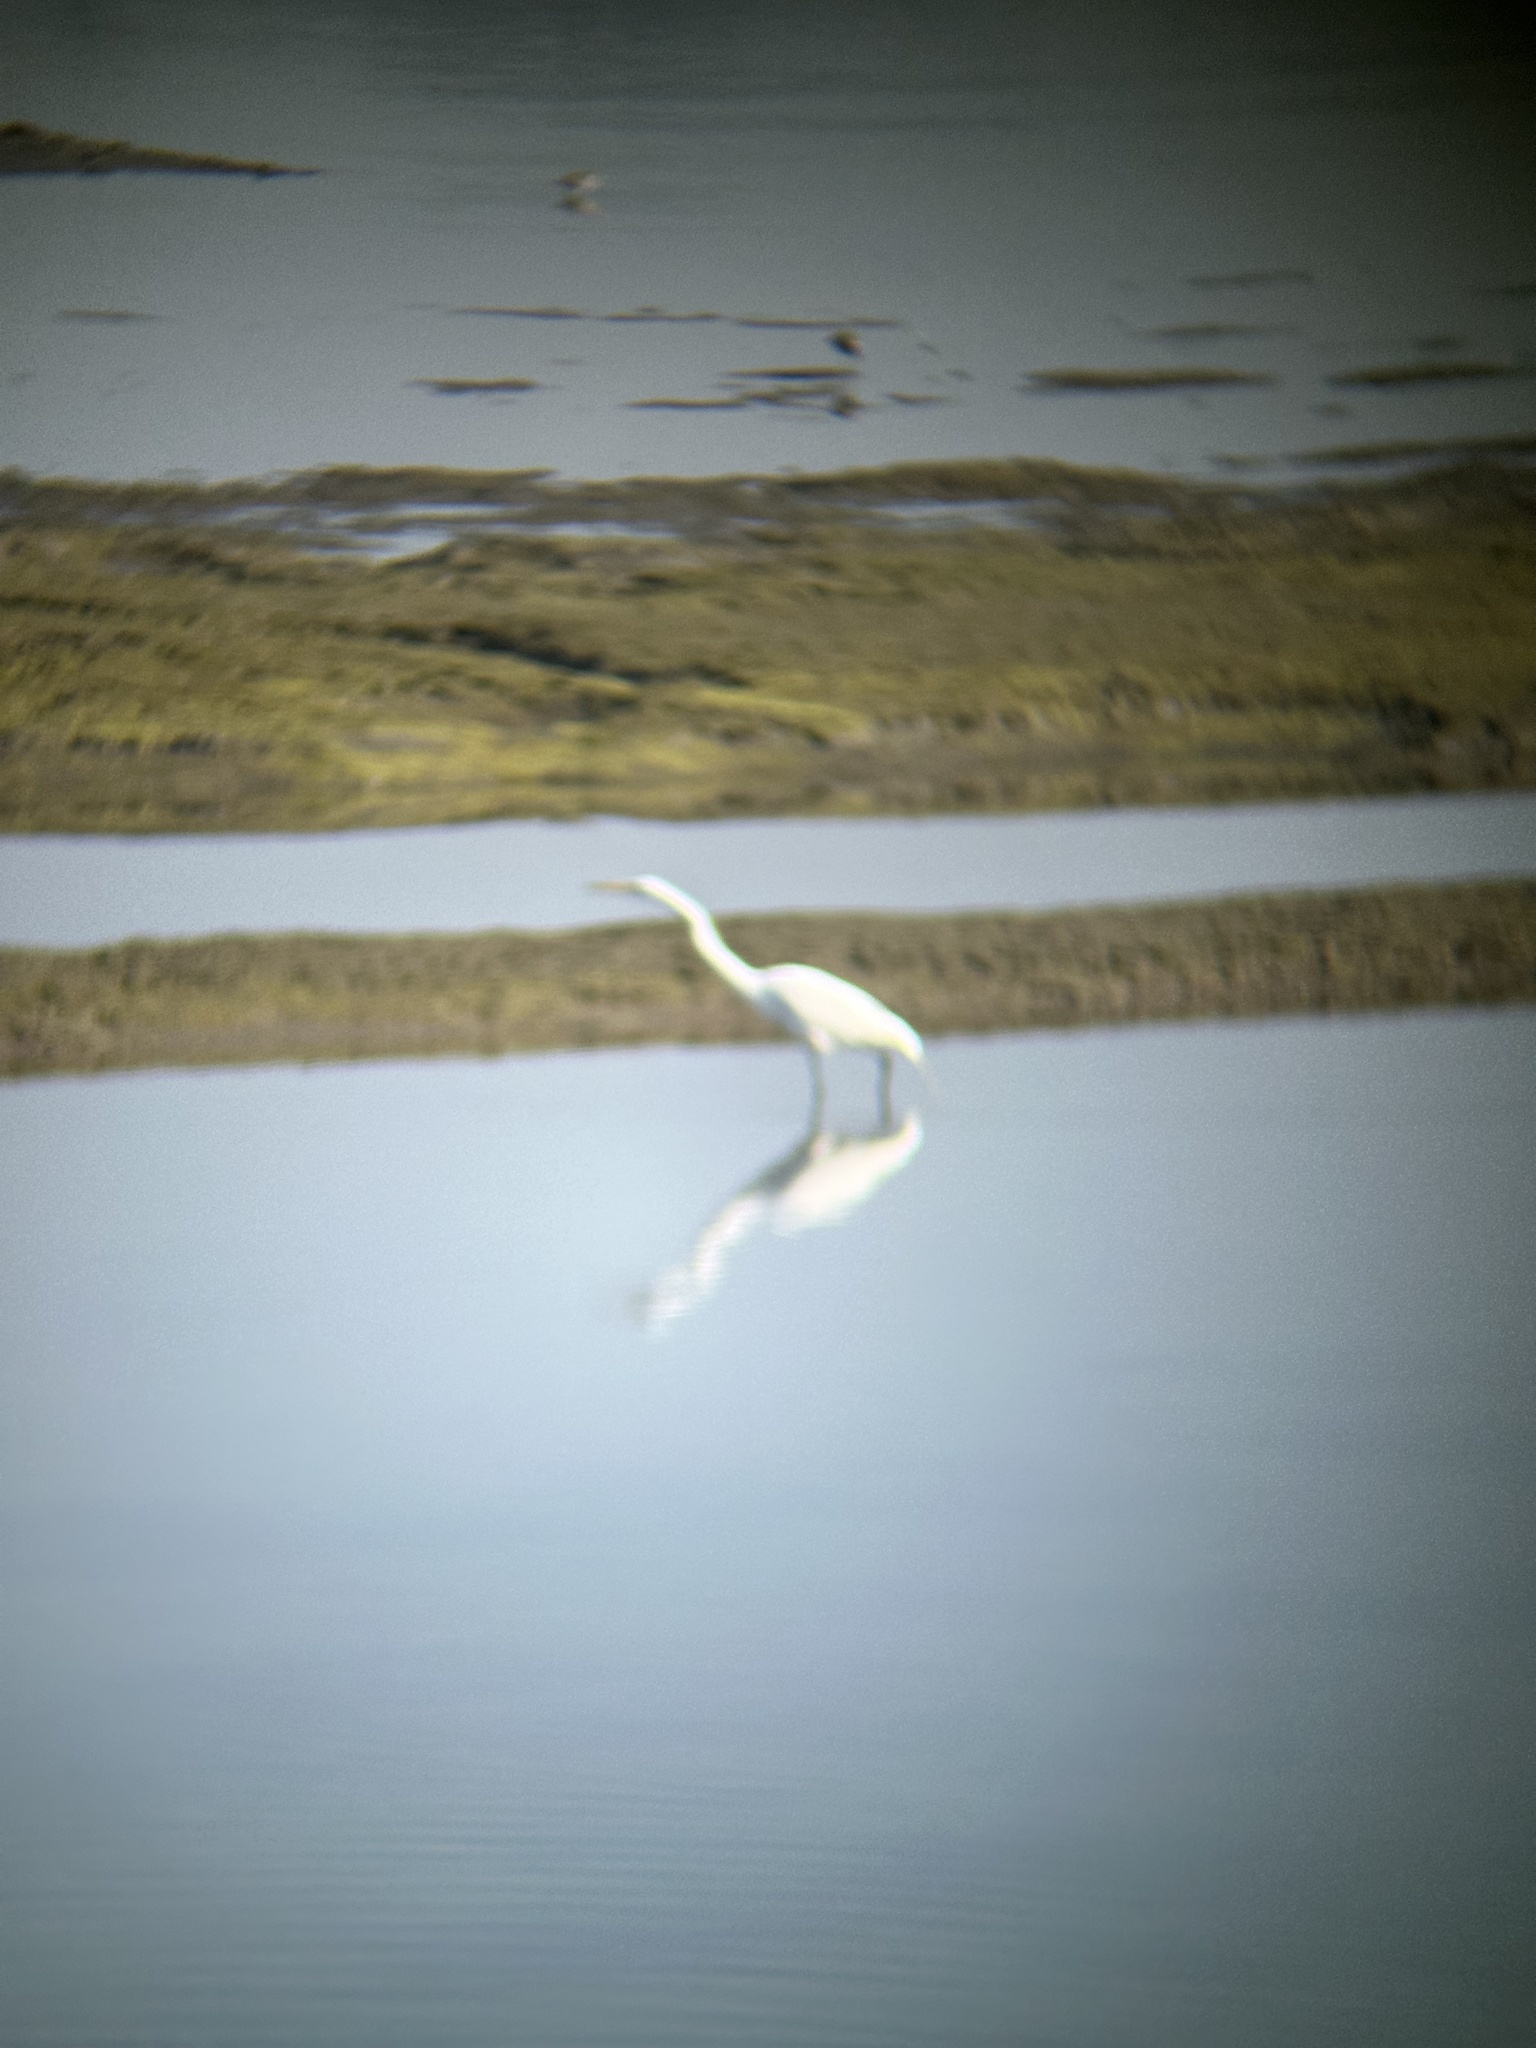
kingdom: Animalia
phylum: Chordata
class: Aves
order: Pelecaniformes
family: Ardeidae
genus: Ardea
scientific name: Ardea alba
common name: Great egret
